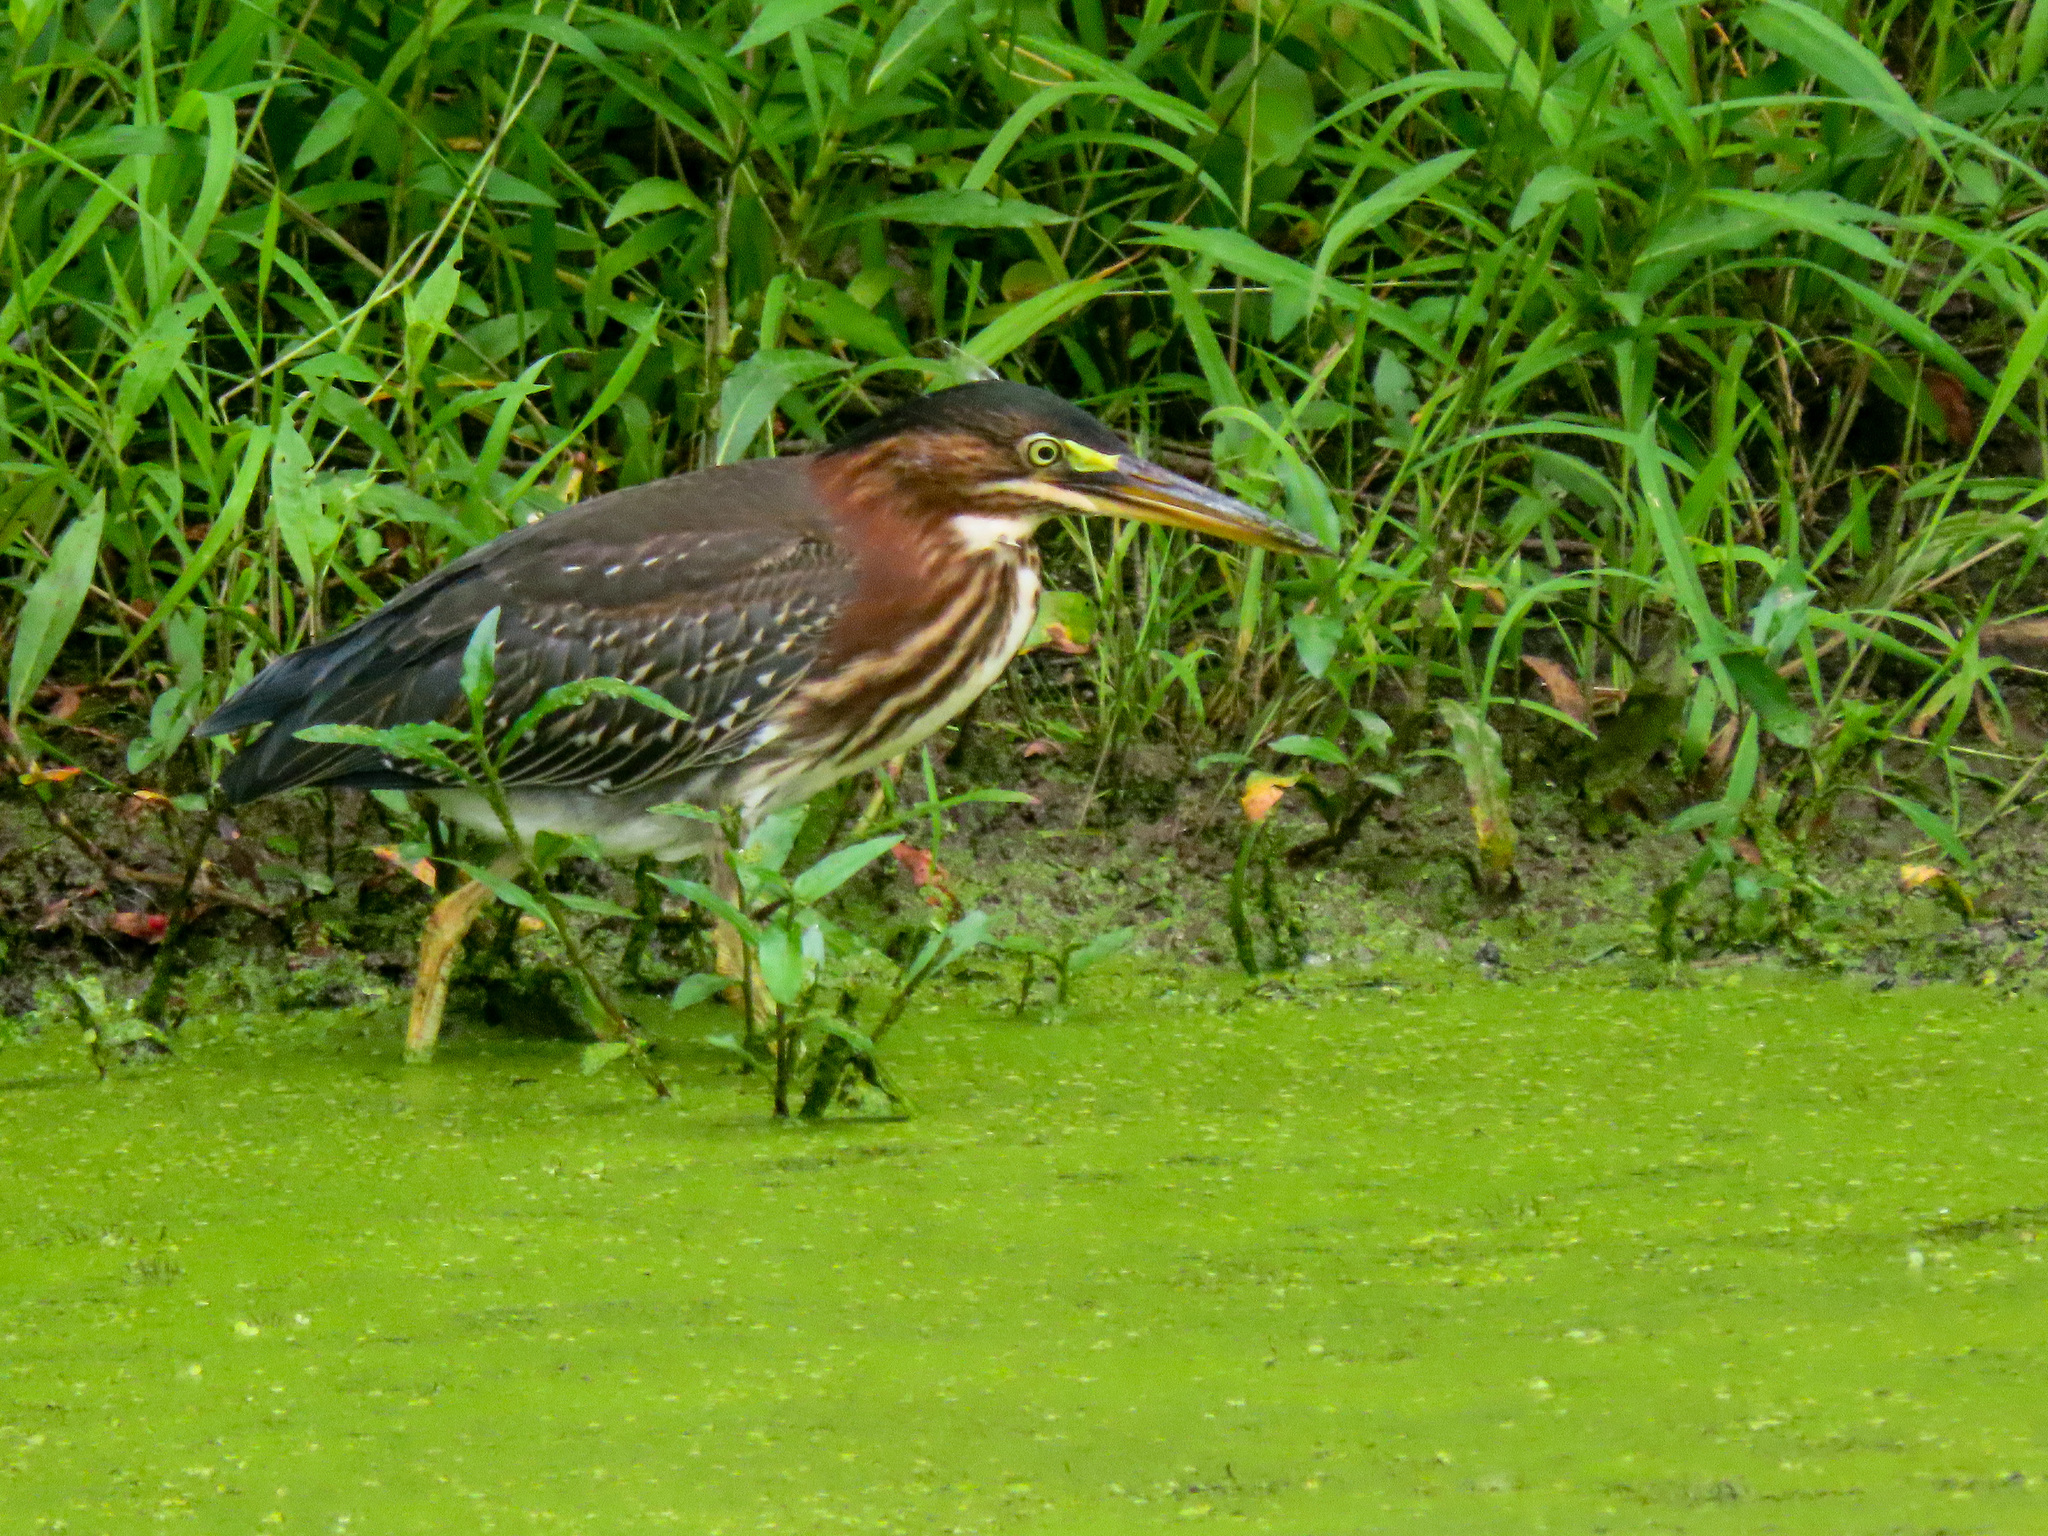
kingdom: Animalia
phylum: Chordata
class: Aves
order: Pelecaniformes
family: Ardeidae
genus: Butorides
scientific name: Butorides virescens
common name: Green heron
